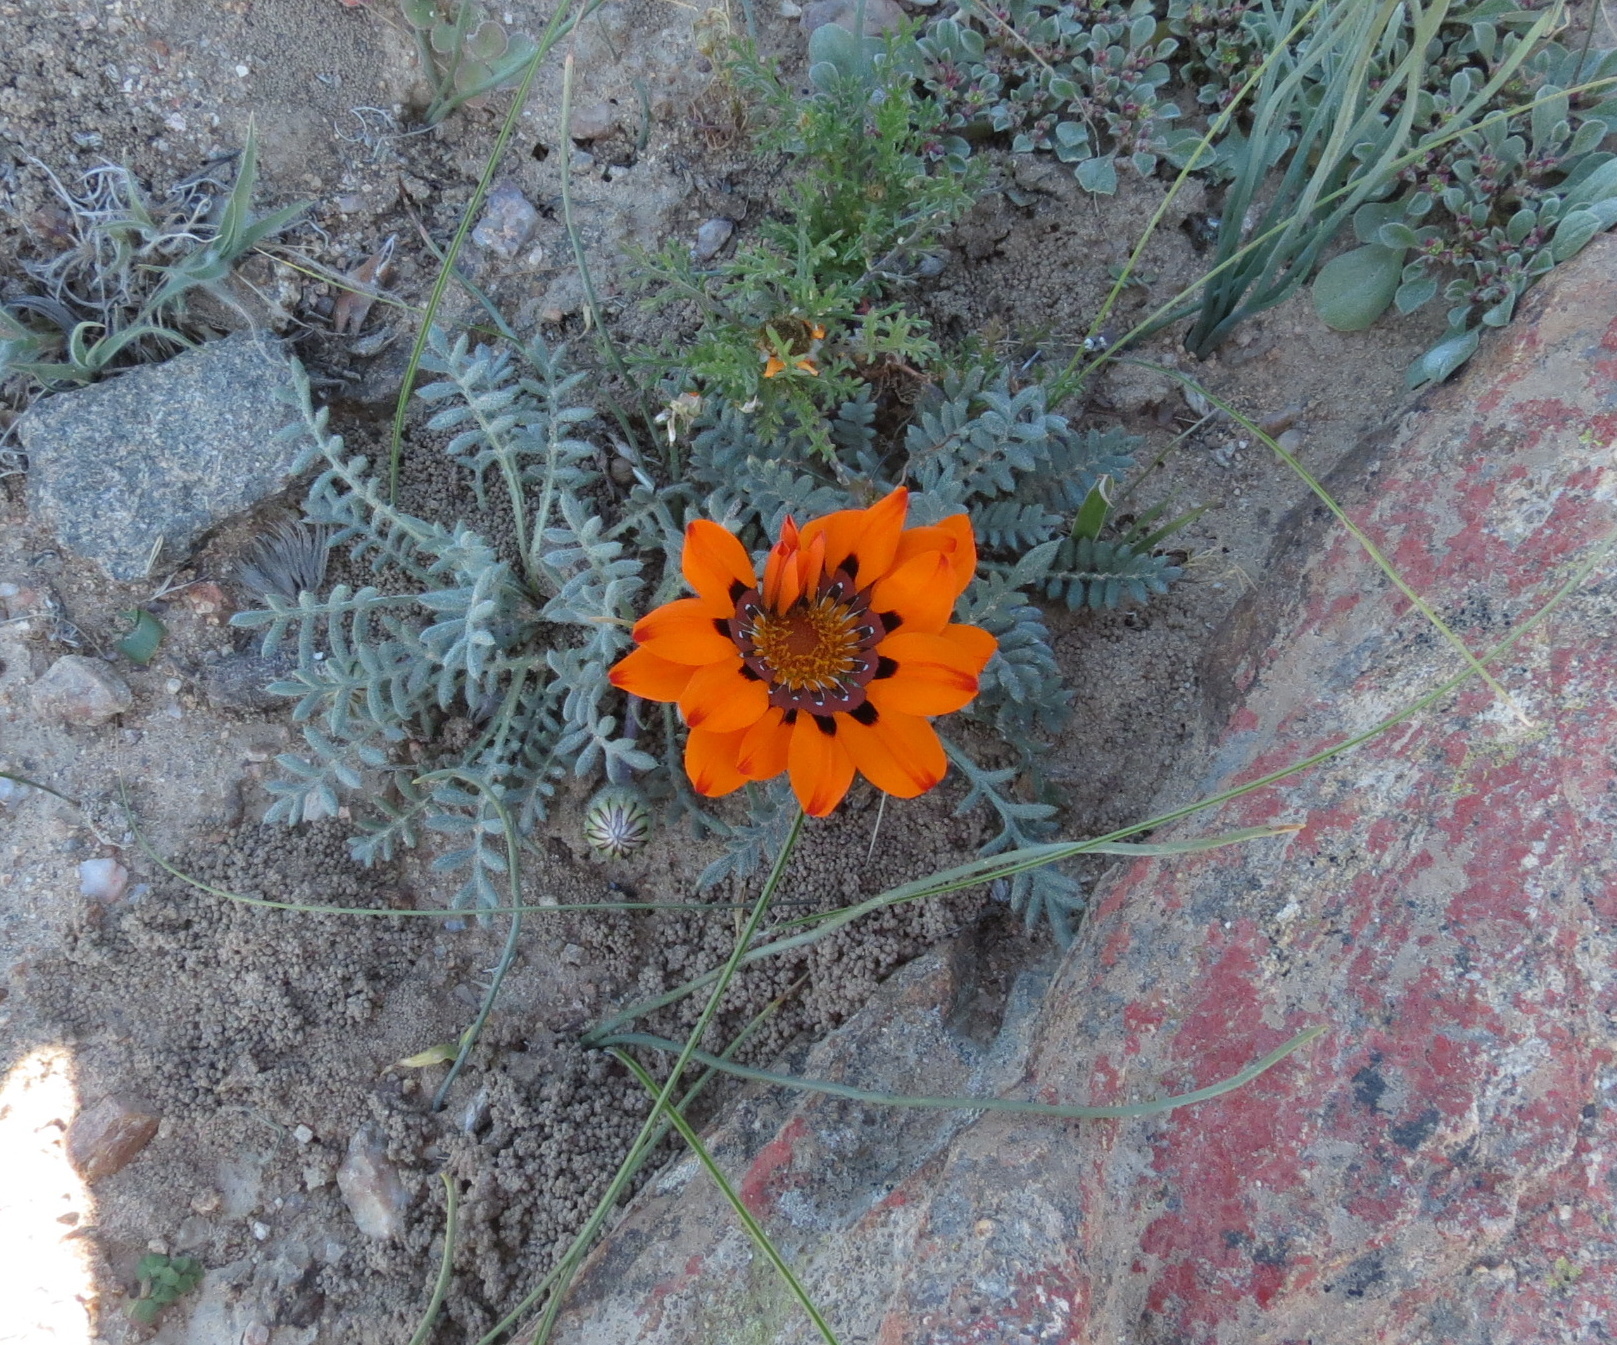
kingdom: Plantae
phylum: Tracheophyta
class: Magnoliopsida
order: Asterales
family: Asteraceae
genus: Gazania
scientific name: Gazania leiopoda
